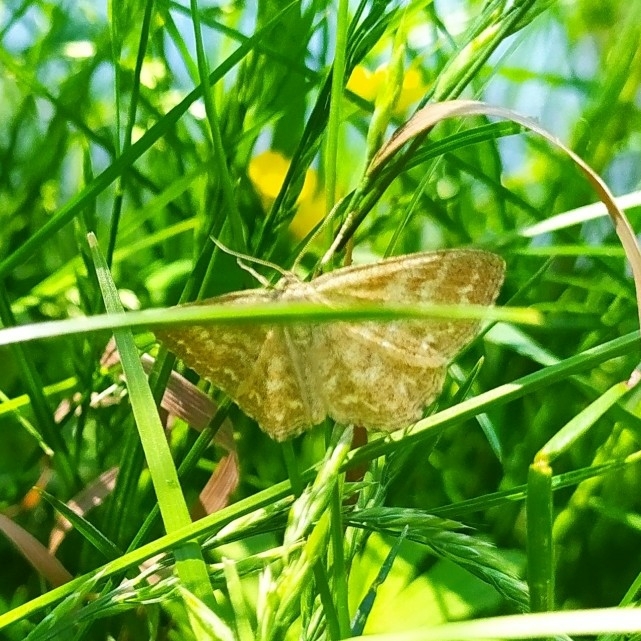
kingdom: Animalia
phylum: Arthropoda
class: Insecta
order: Lepidoptera
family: Geometridae
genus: Scopula
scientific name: Scopula immorata
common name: Lewes wave
